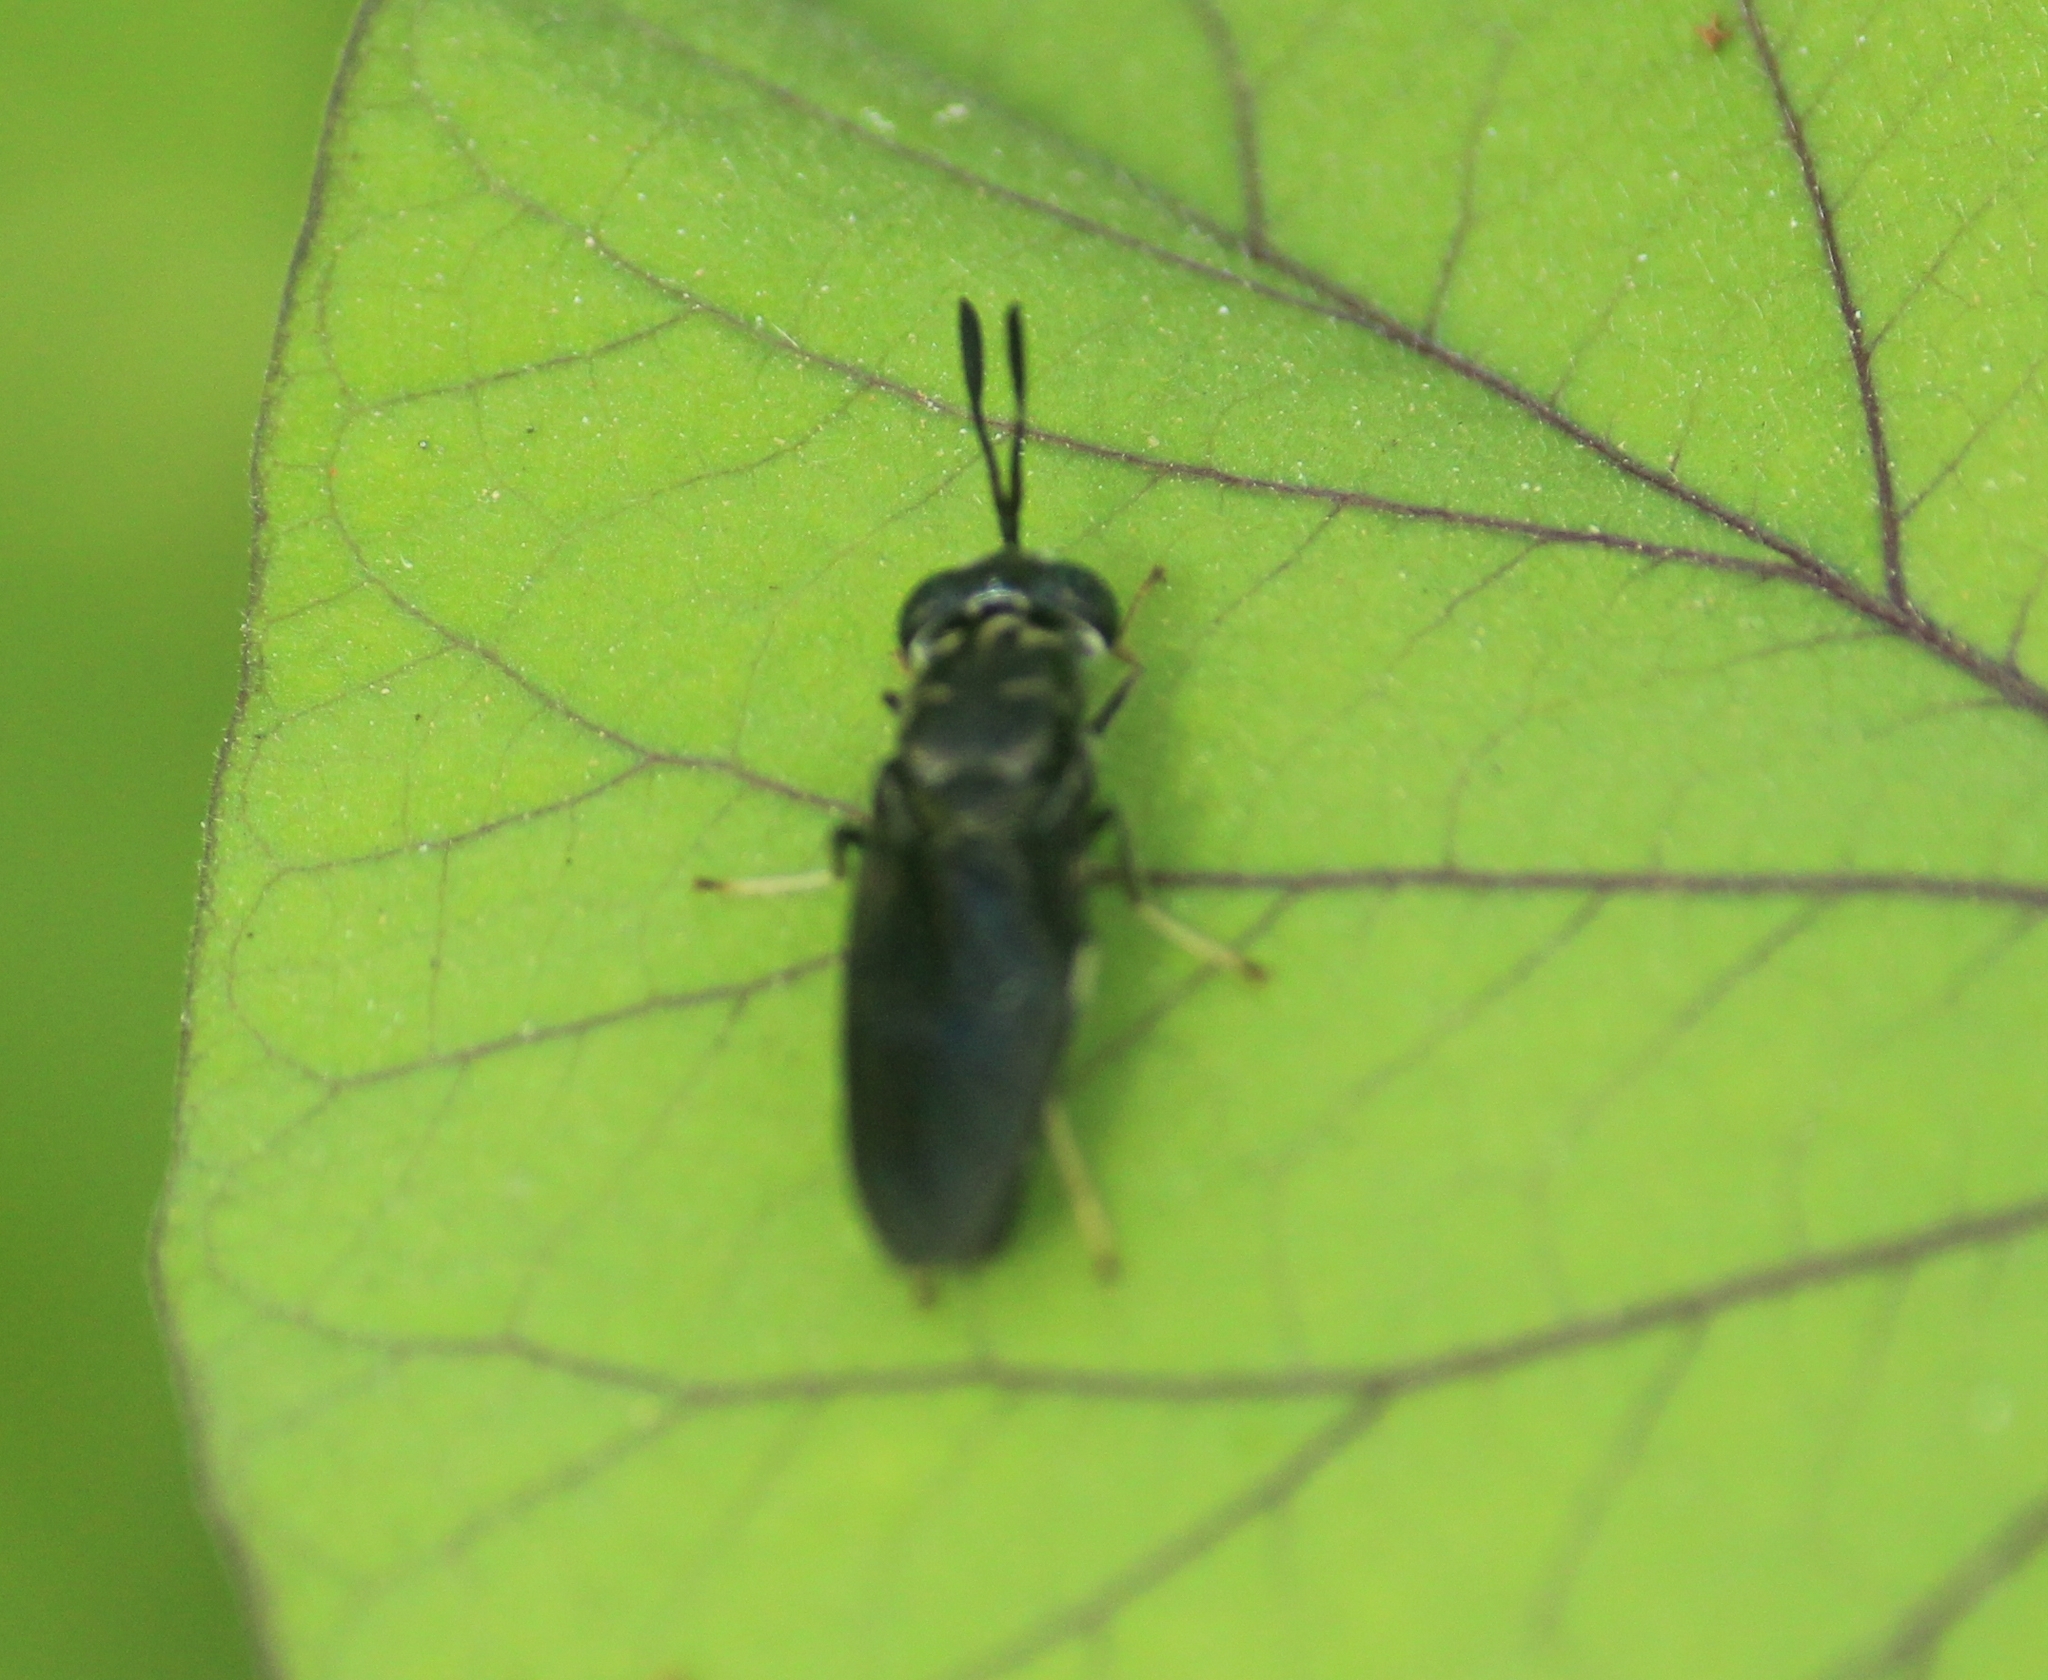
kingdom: Animalia
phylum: Arthropoda
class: Insecta
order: Diptera
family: Stratiomyidae
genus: Hermetia
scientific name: Hermetia illucens
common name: Black soldier fly
